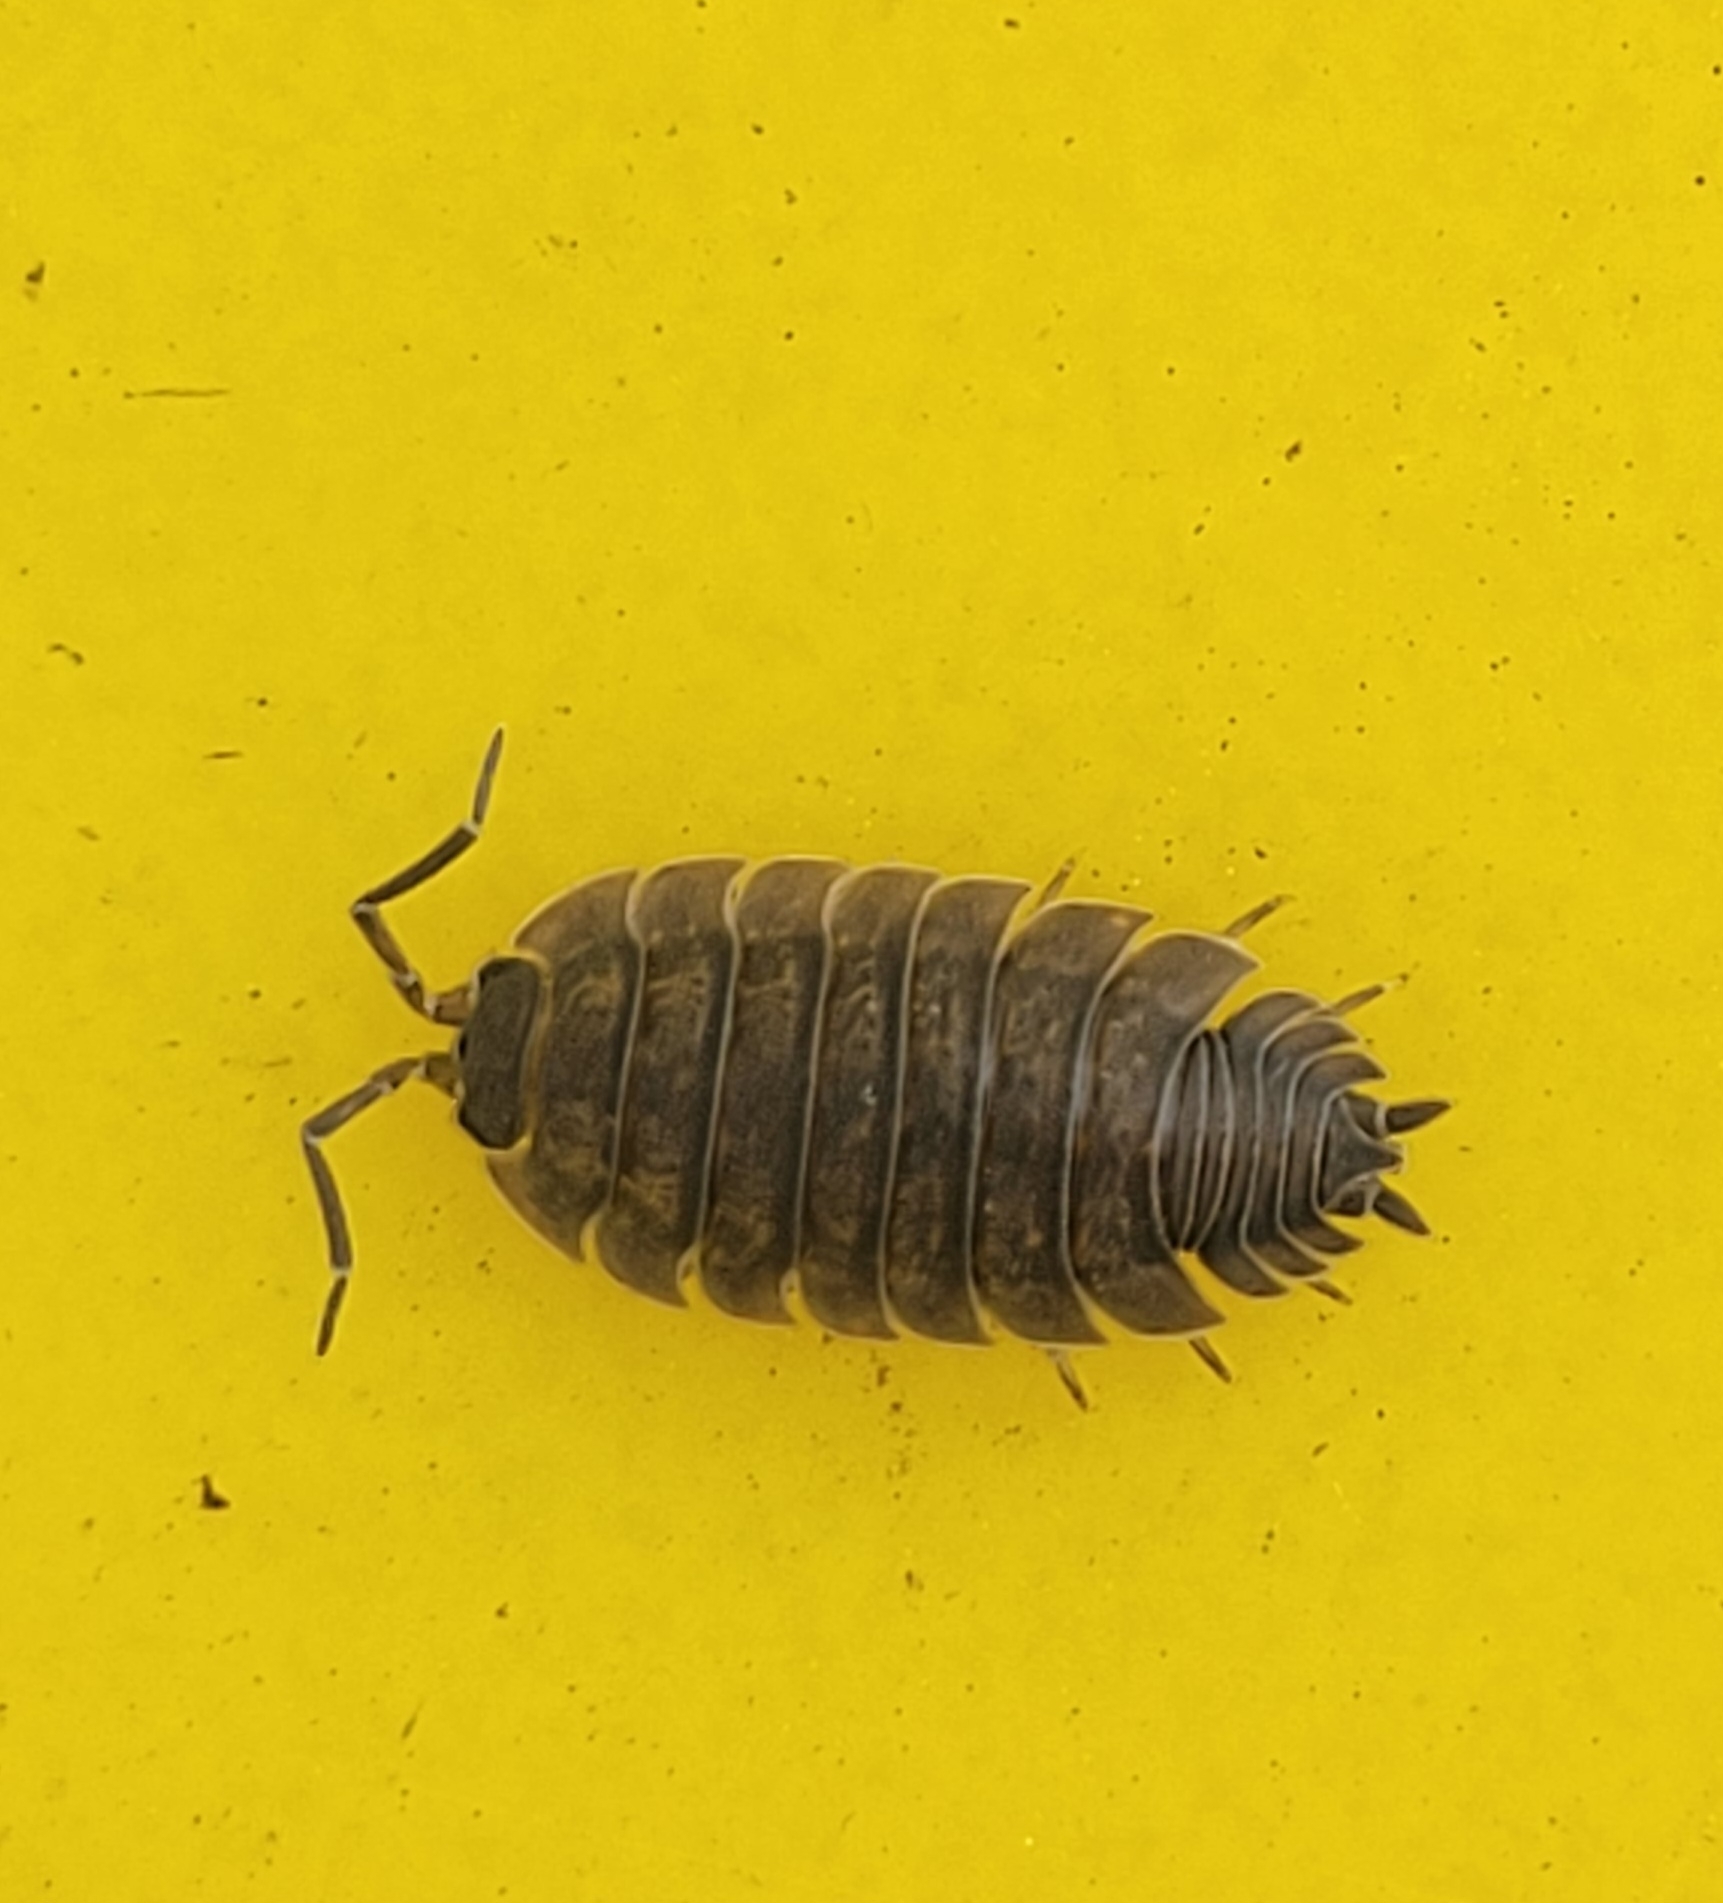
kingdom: Animalia
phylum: Arthropoda
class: Malacostraca
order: Isopoda
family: Porcellionidae
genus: Porcellio
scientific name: Porcellio scaber
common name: Common rough woodlouse
